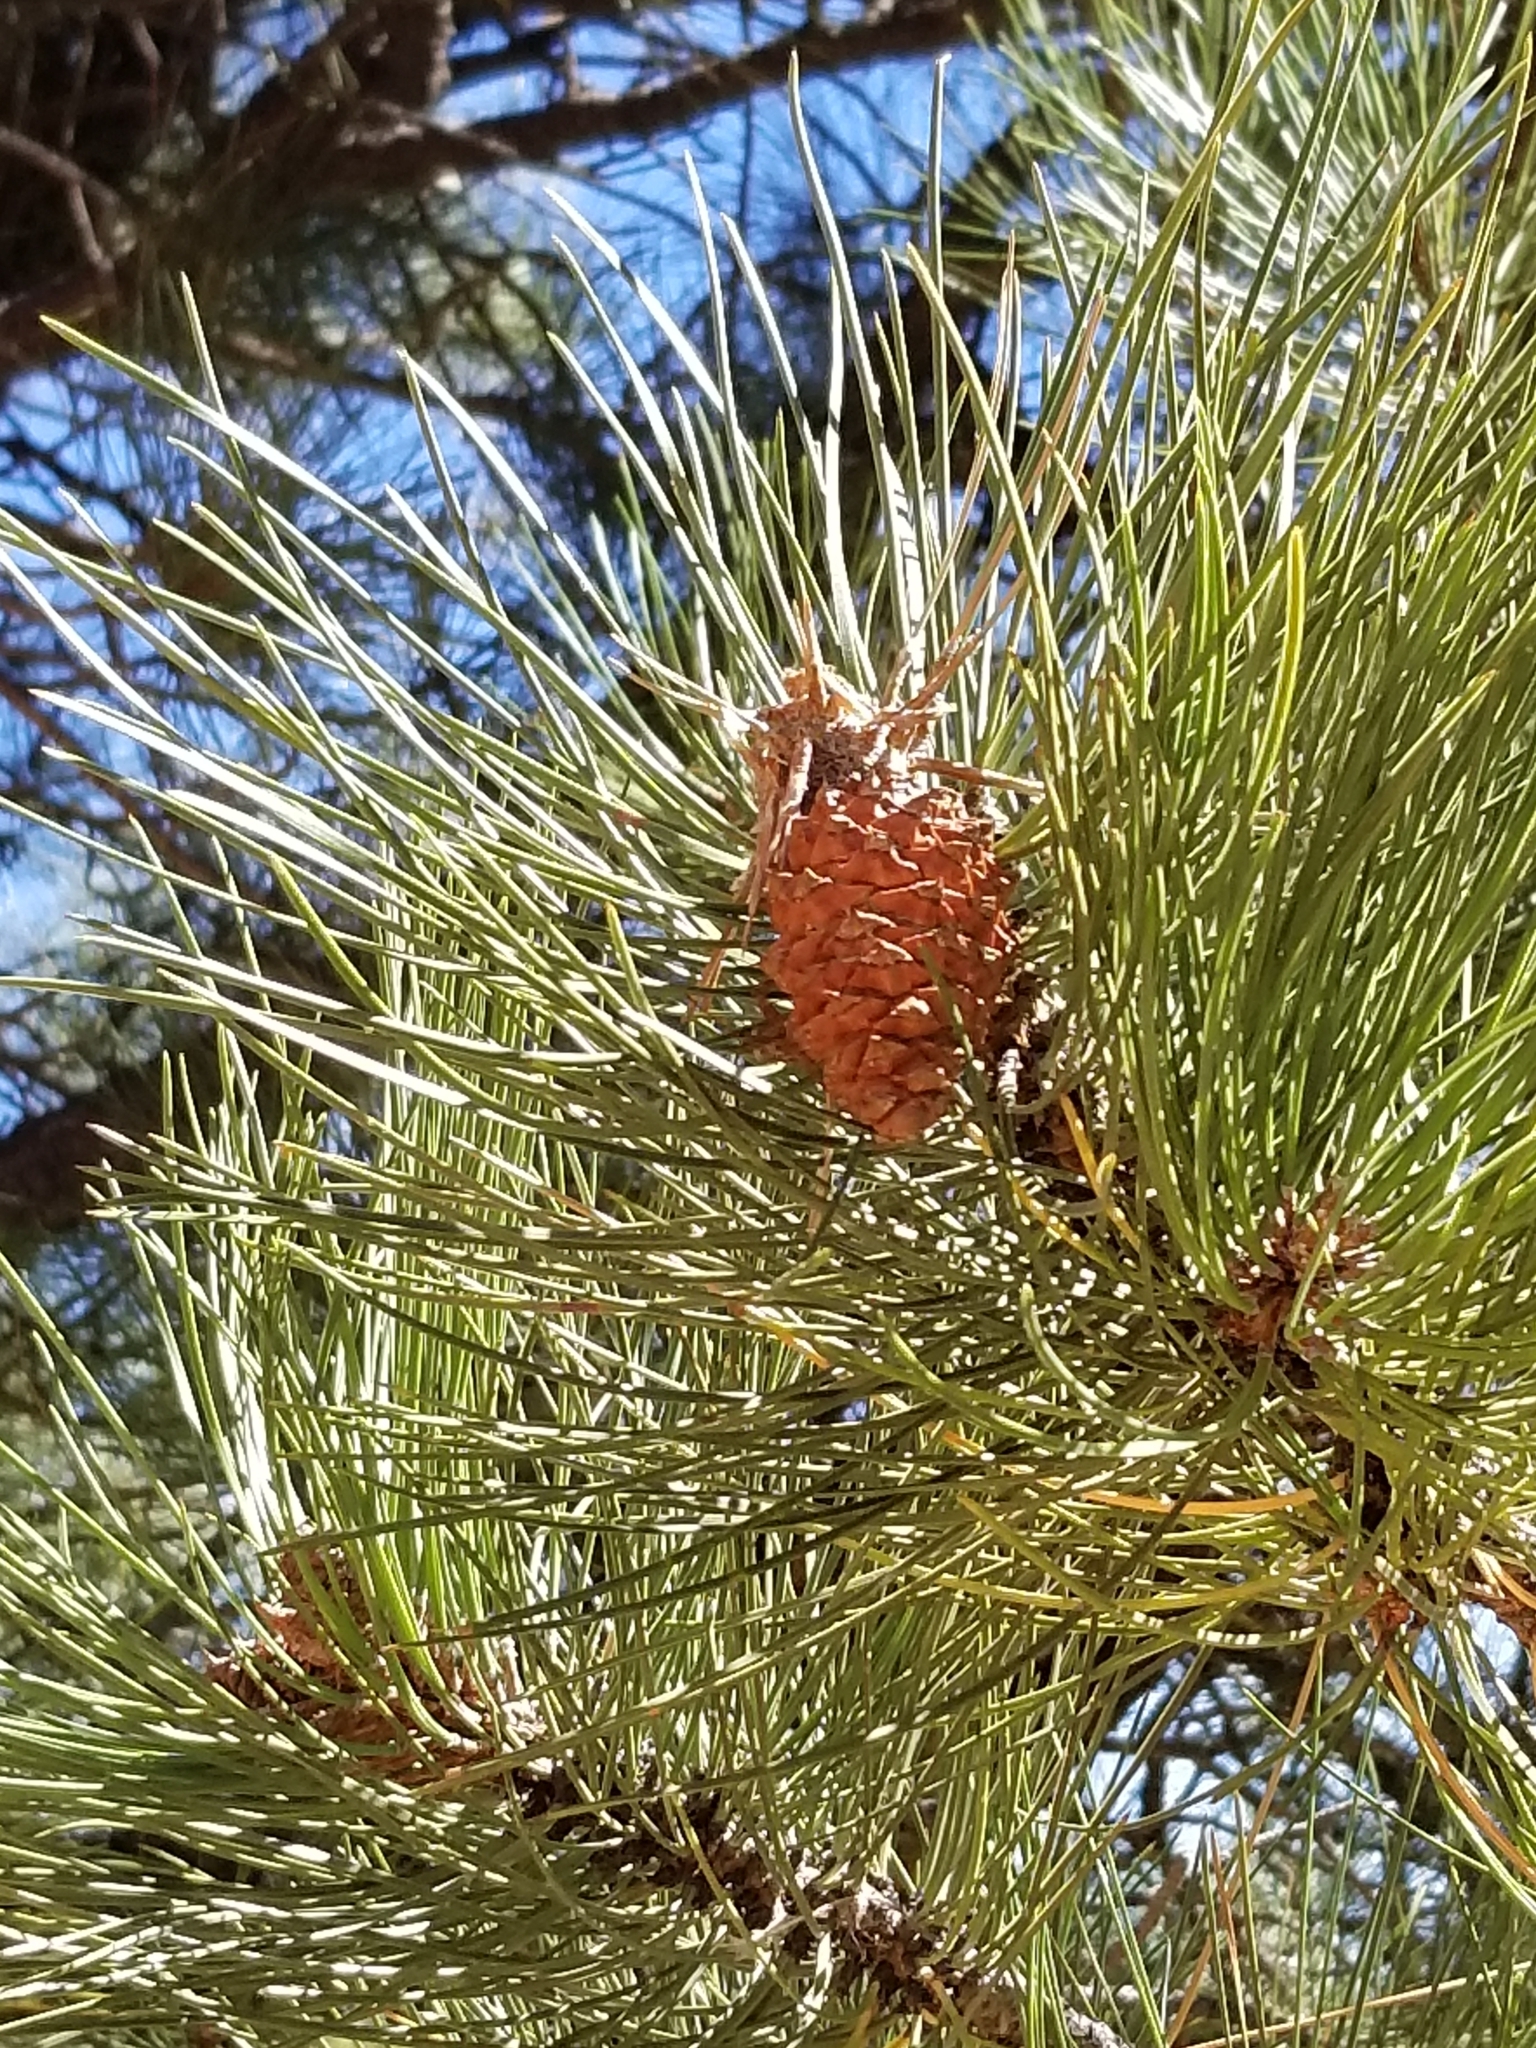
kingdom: Plantae
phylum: Tracheophyta
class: Pinopsida
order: Pinales
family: Pinaceae
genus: Pinus
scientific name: Pinus ponderosa
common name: Western yellow-pine
